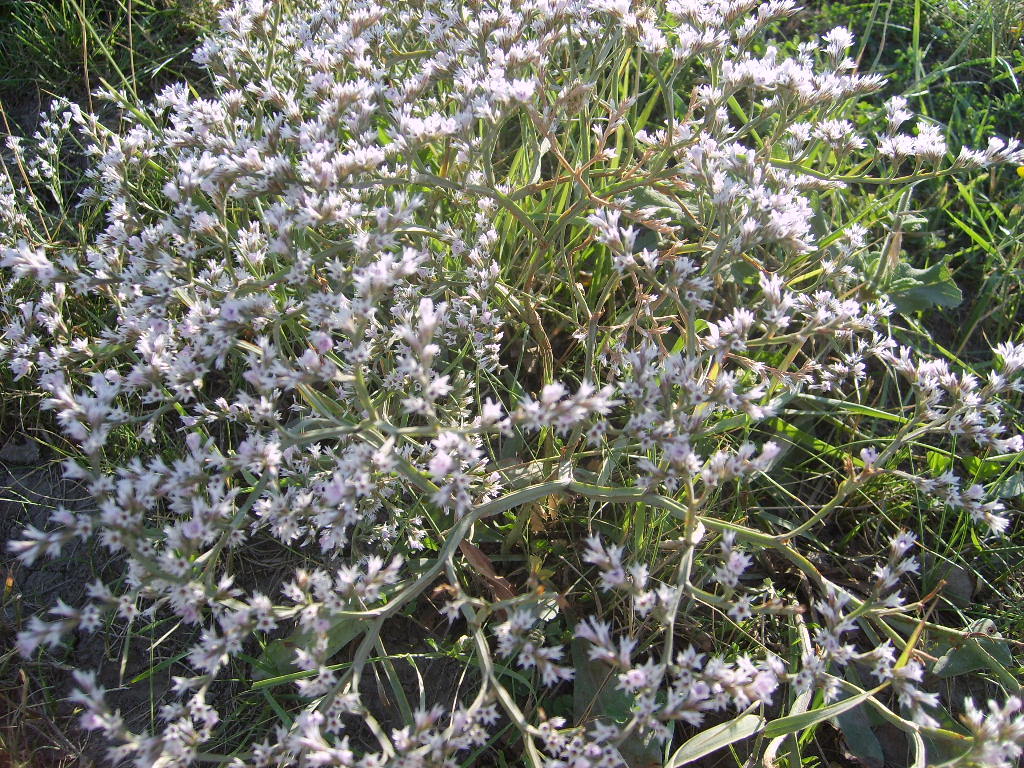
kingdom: Plantae
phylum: Tracheophyta
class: Magnoliopsida
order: Caryophyllales
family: Plumbaginaceae
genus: Goniolimon
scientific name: Goniolimon tataricum
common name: Statice
